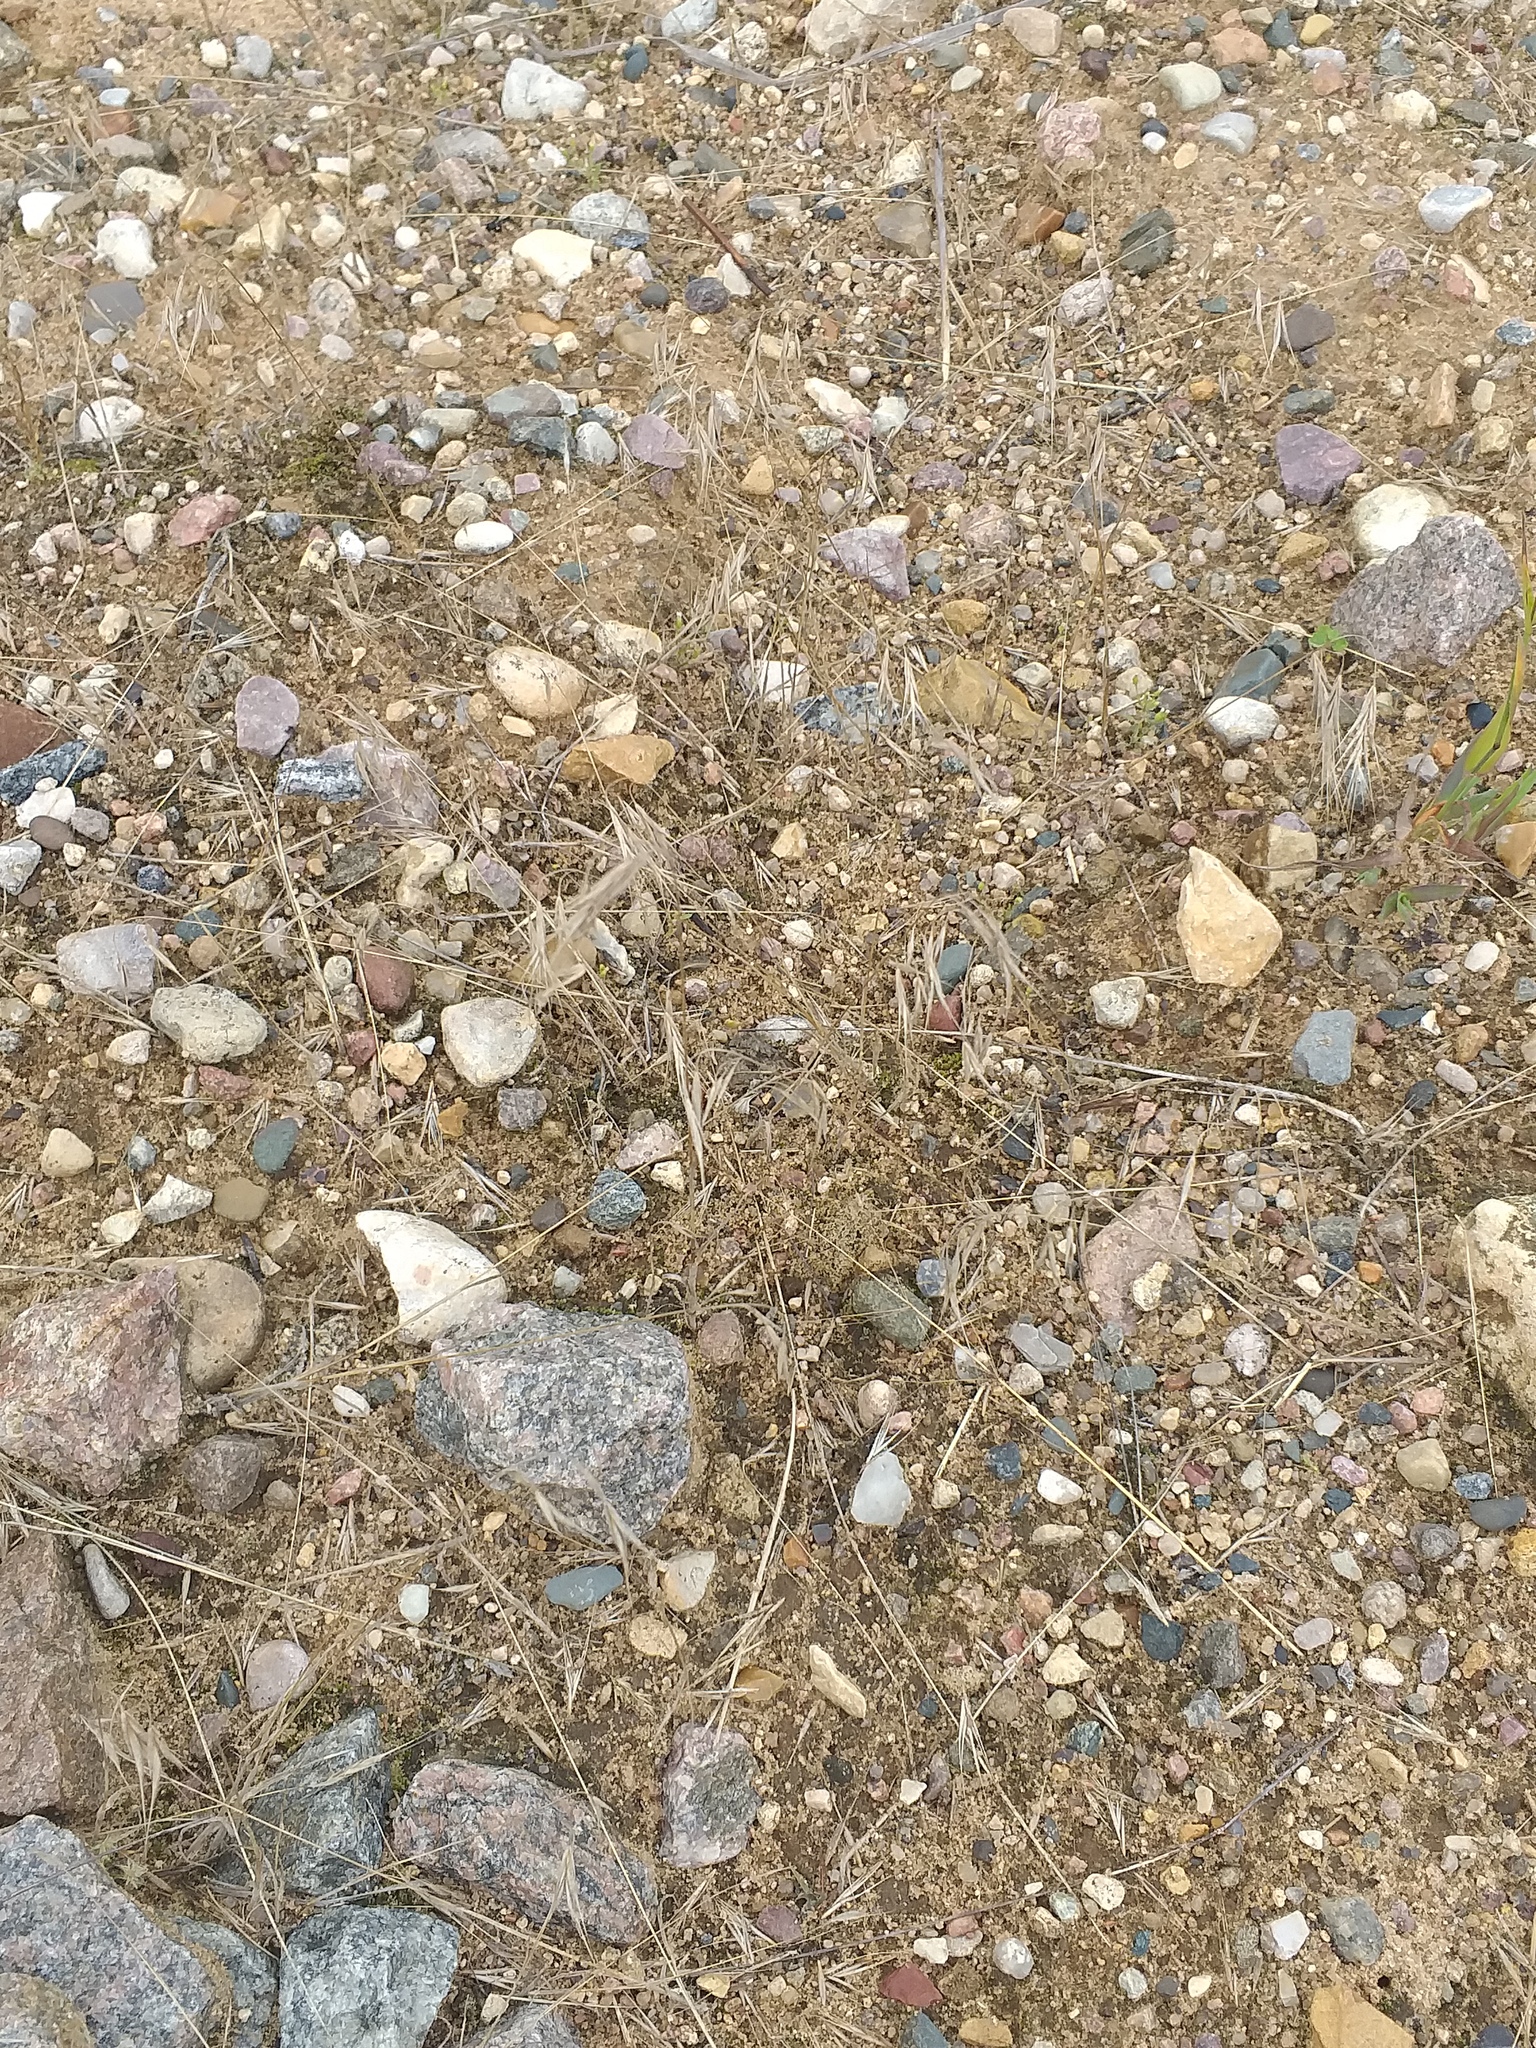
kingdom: Plantae
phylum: Tracheophyta
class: Liliopsida
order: Poales
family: Poaceae
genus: Bromus
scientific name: Bromus tectorum
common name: Cheatgrass
